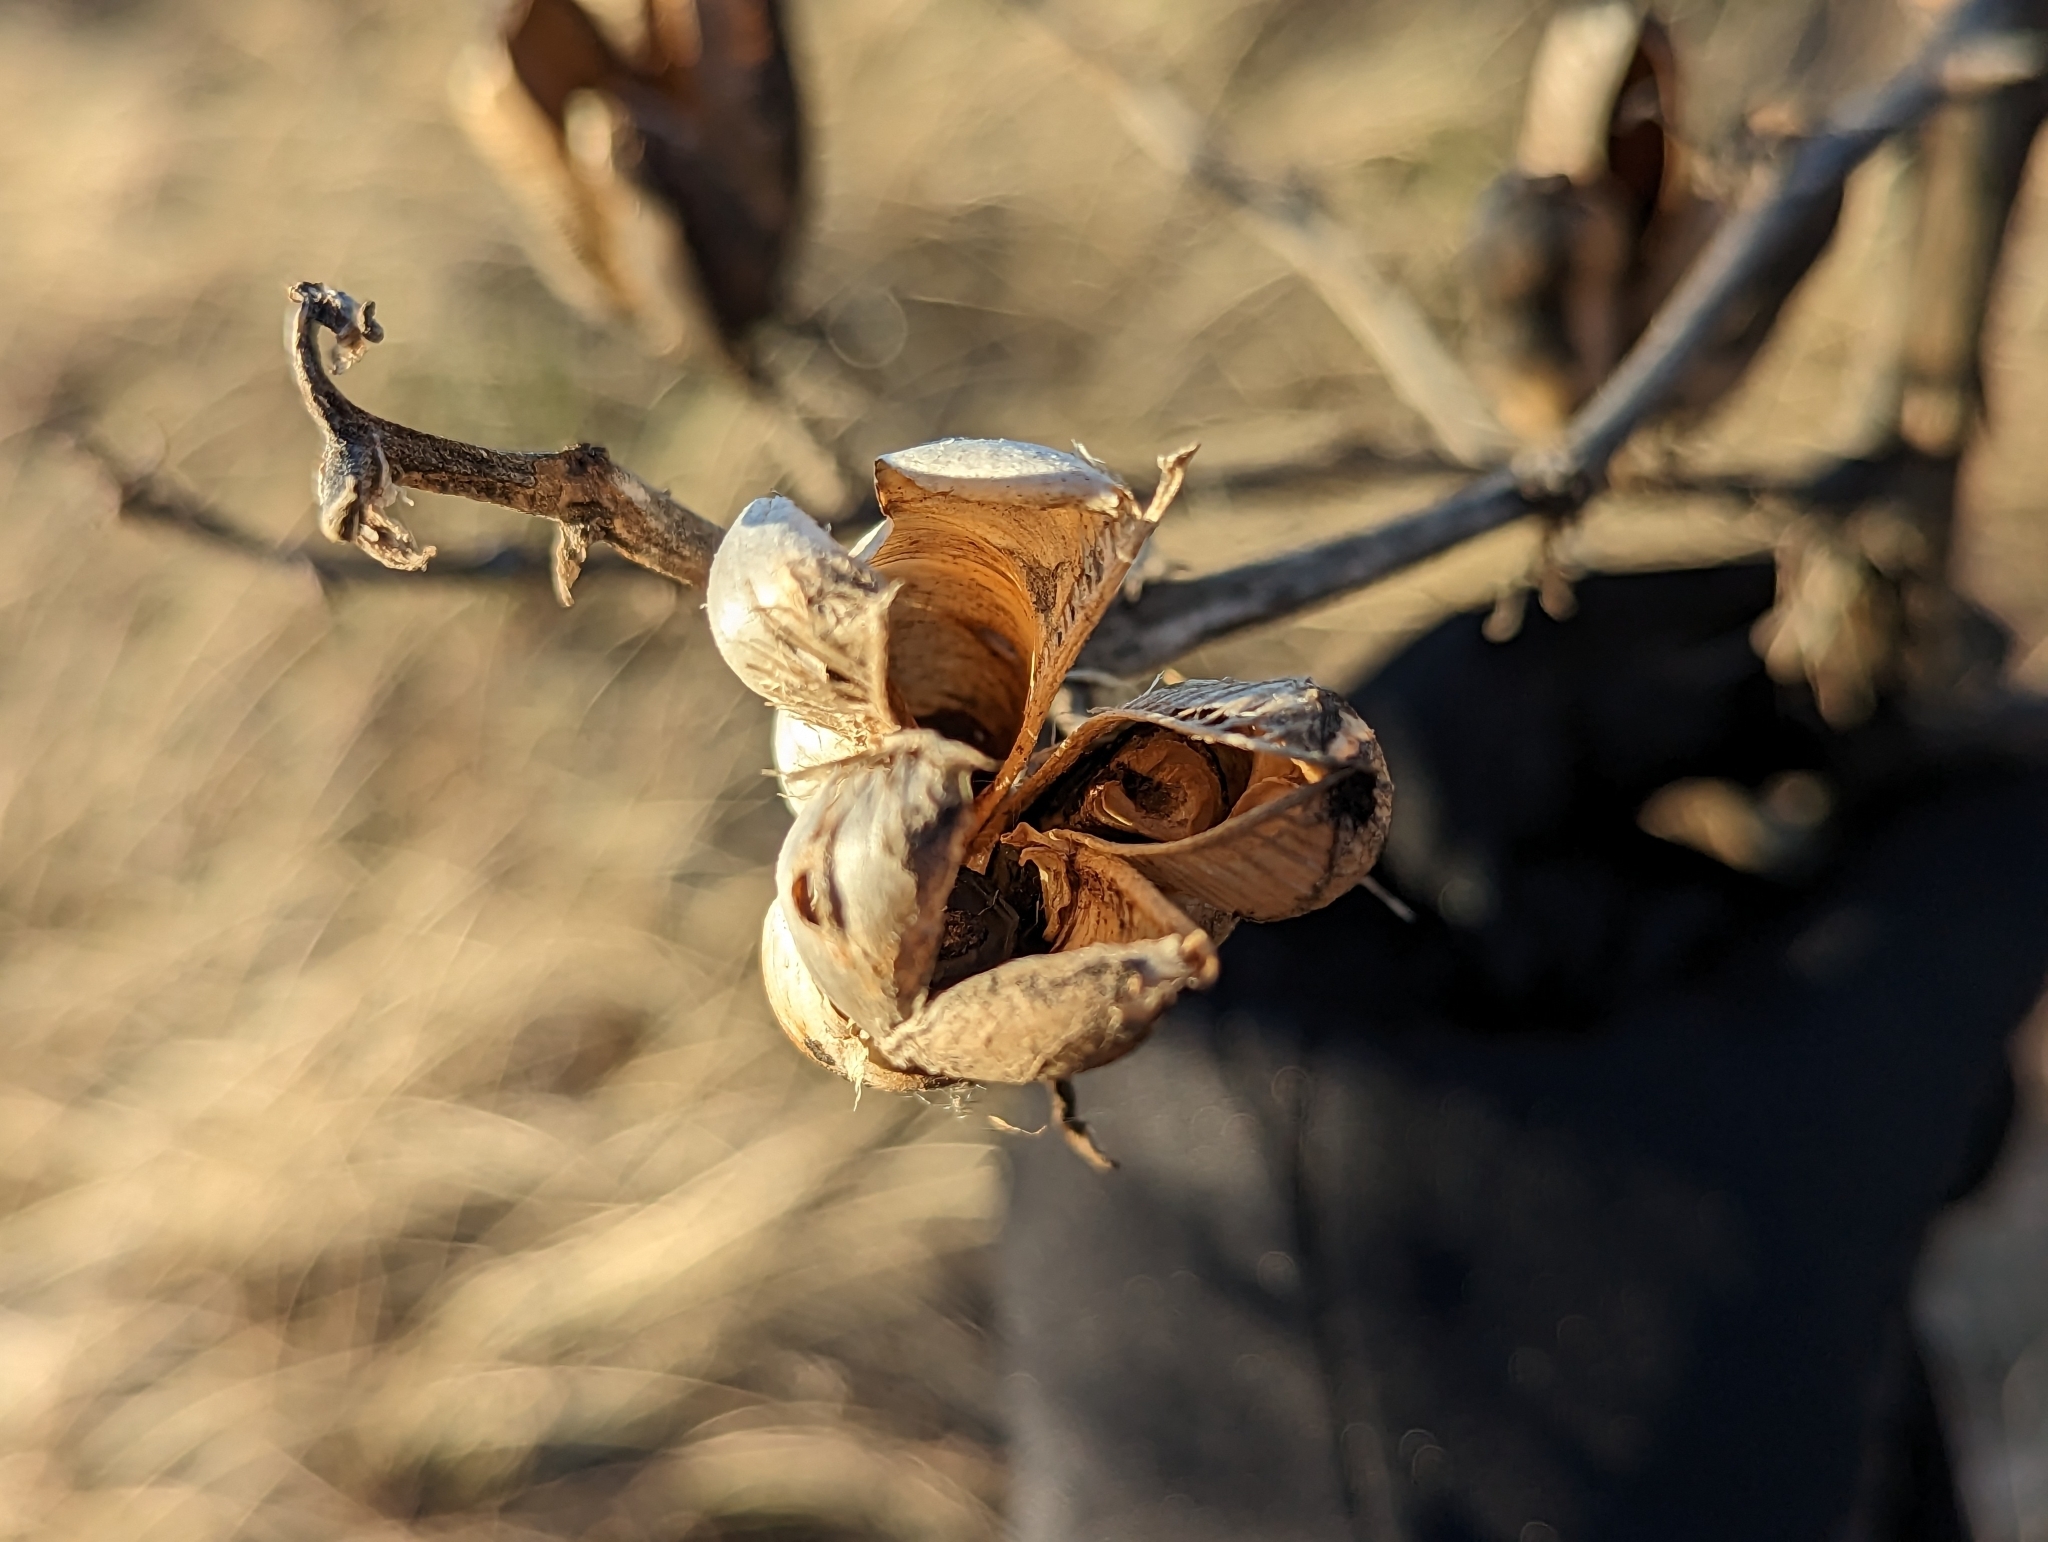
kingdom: Plantae
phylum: Tracheophyta
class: Liliopsida
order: Asparagales
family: Asparagaceae
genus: Yucca
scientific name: Yucca filamentosa
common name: Adam's-needle
